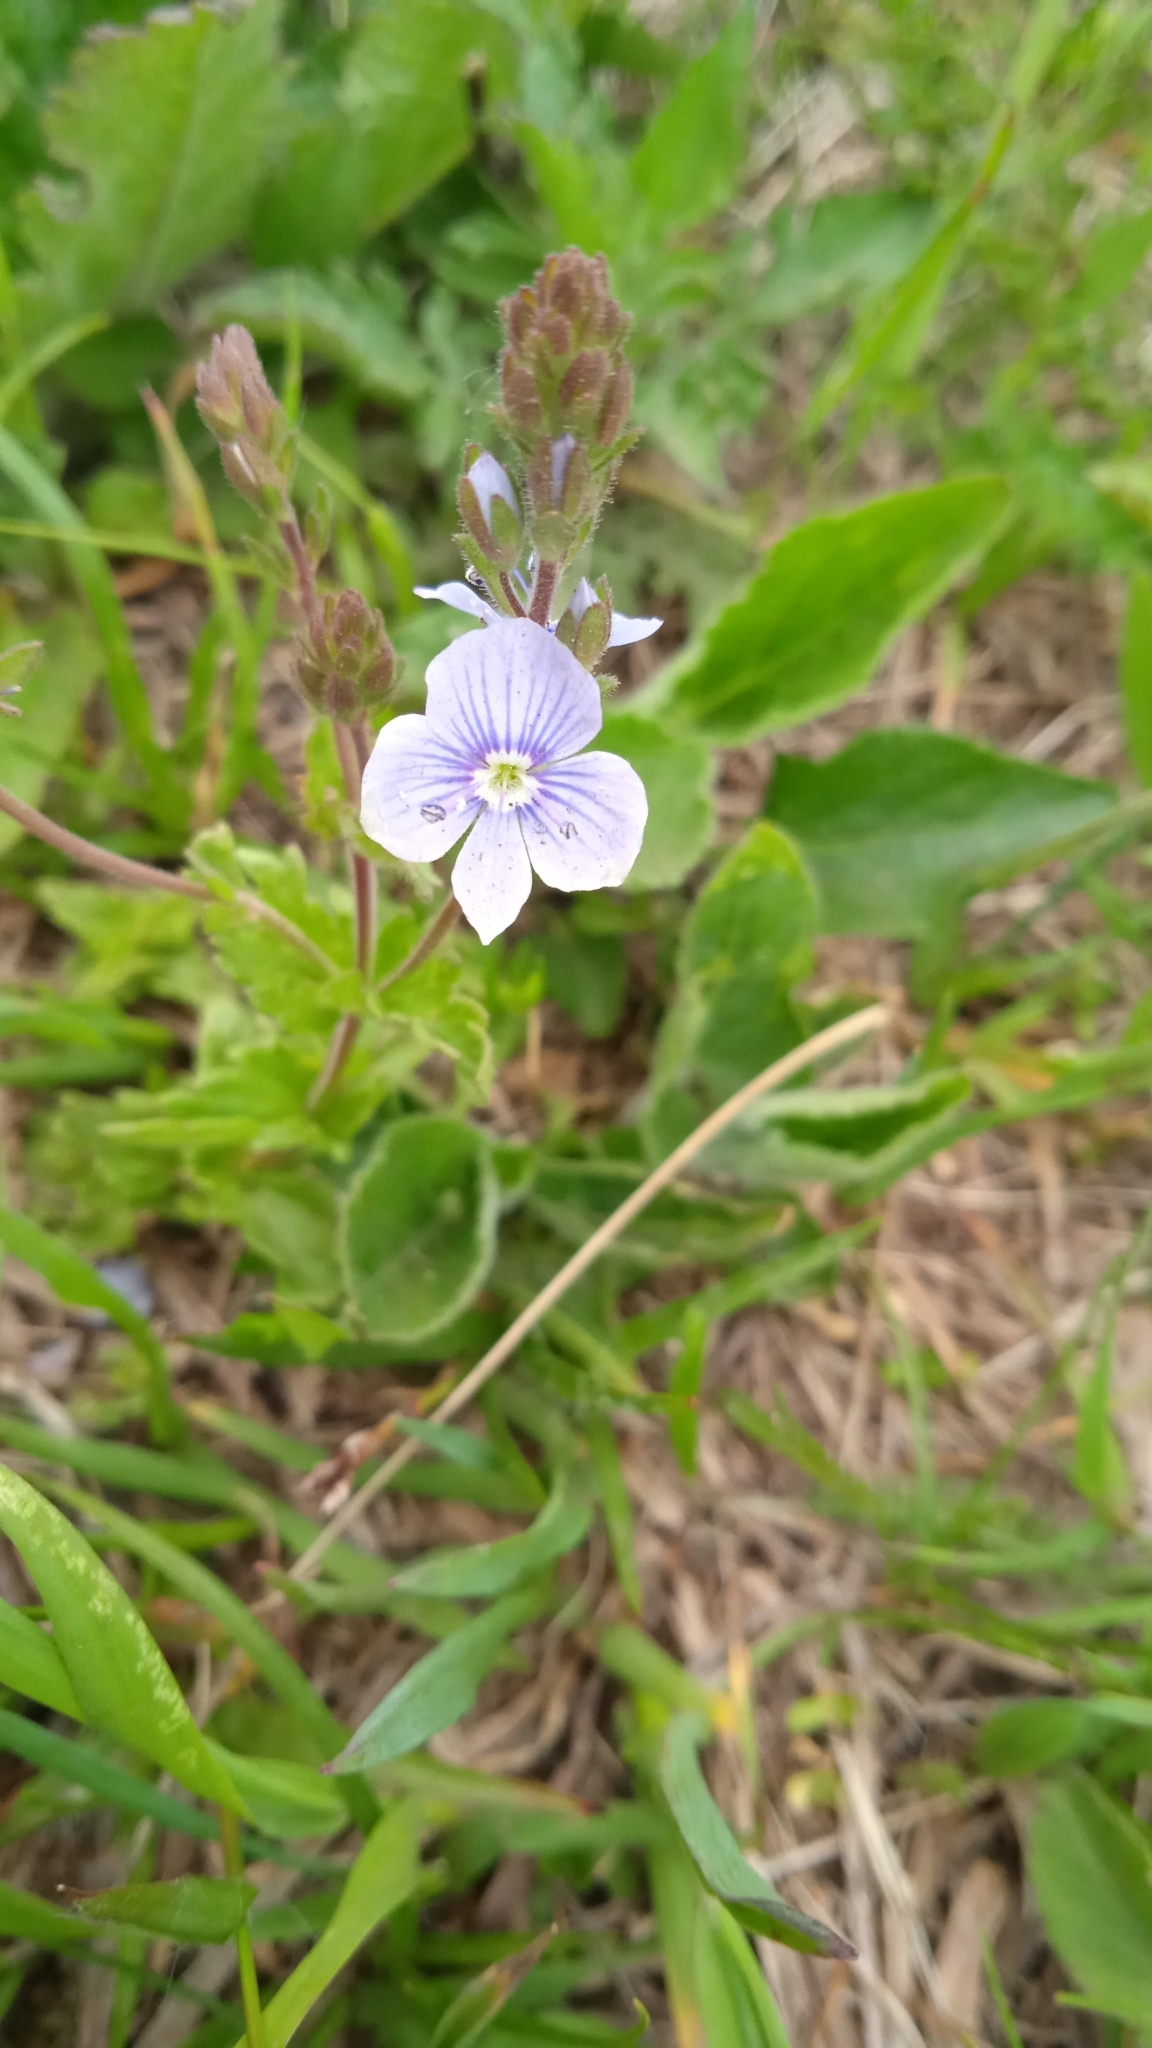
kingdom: Plantae
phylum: Tracheophyta
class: Magnoliopsida
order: Lamiales
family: Plantaginaceae
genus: Veronica
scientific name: Veronica chamaedrys
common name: Germander speedwell
